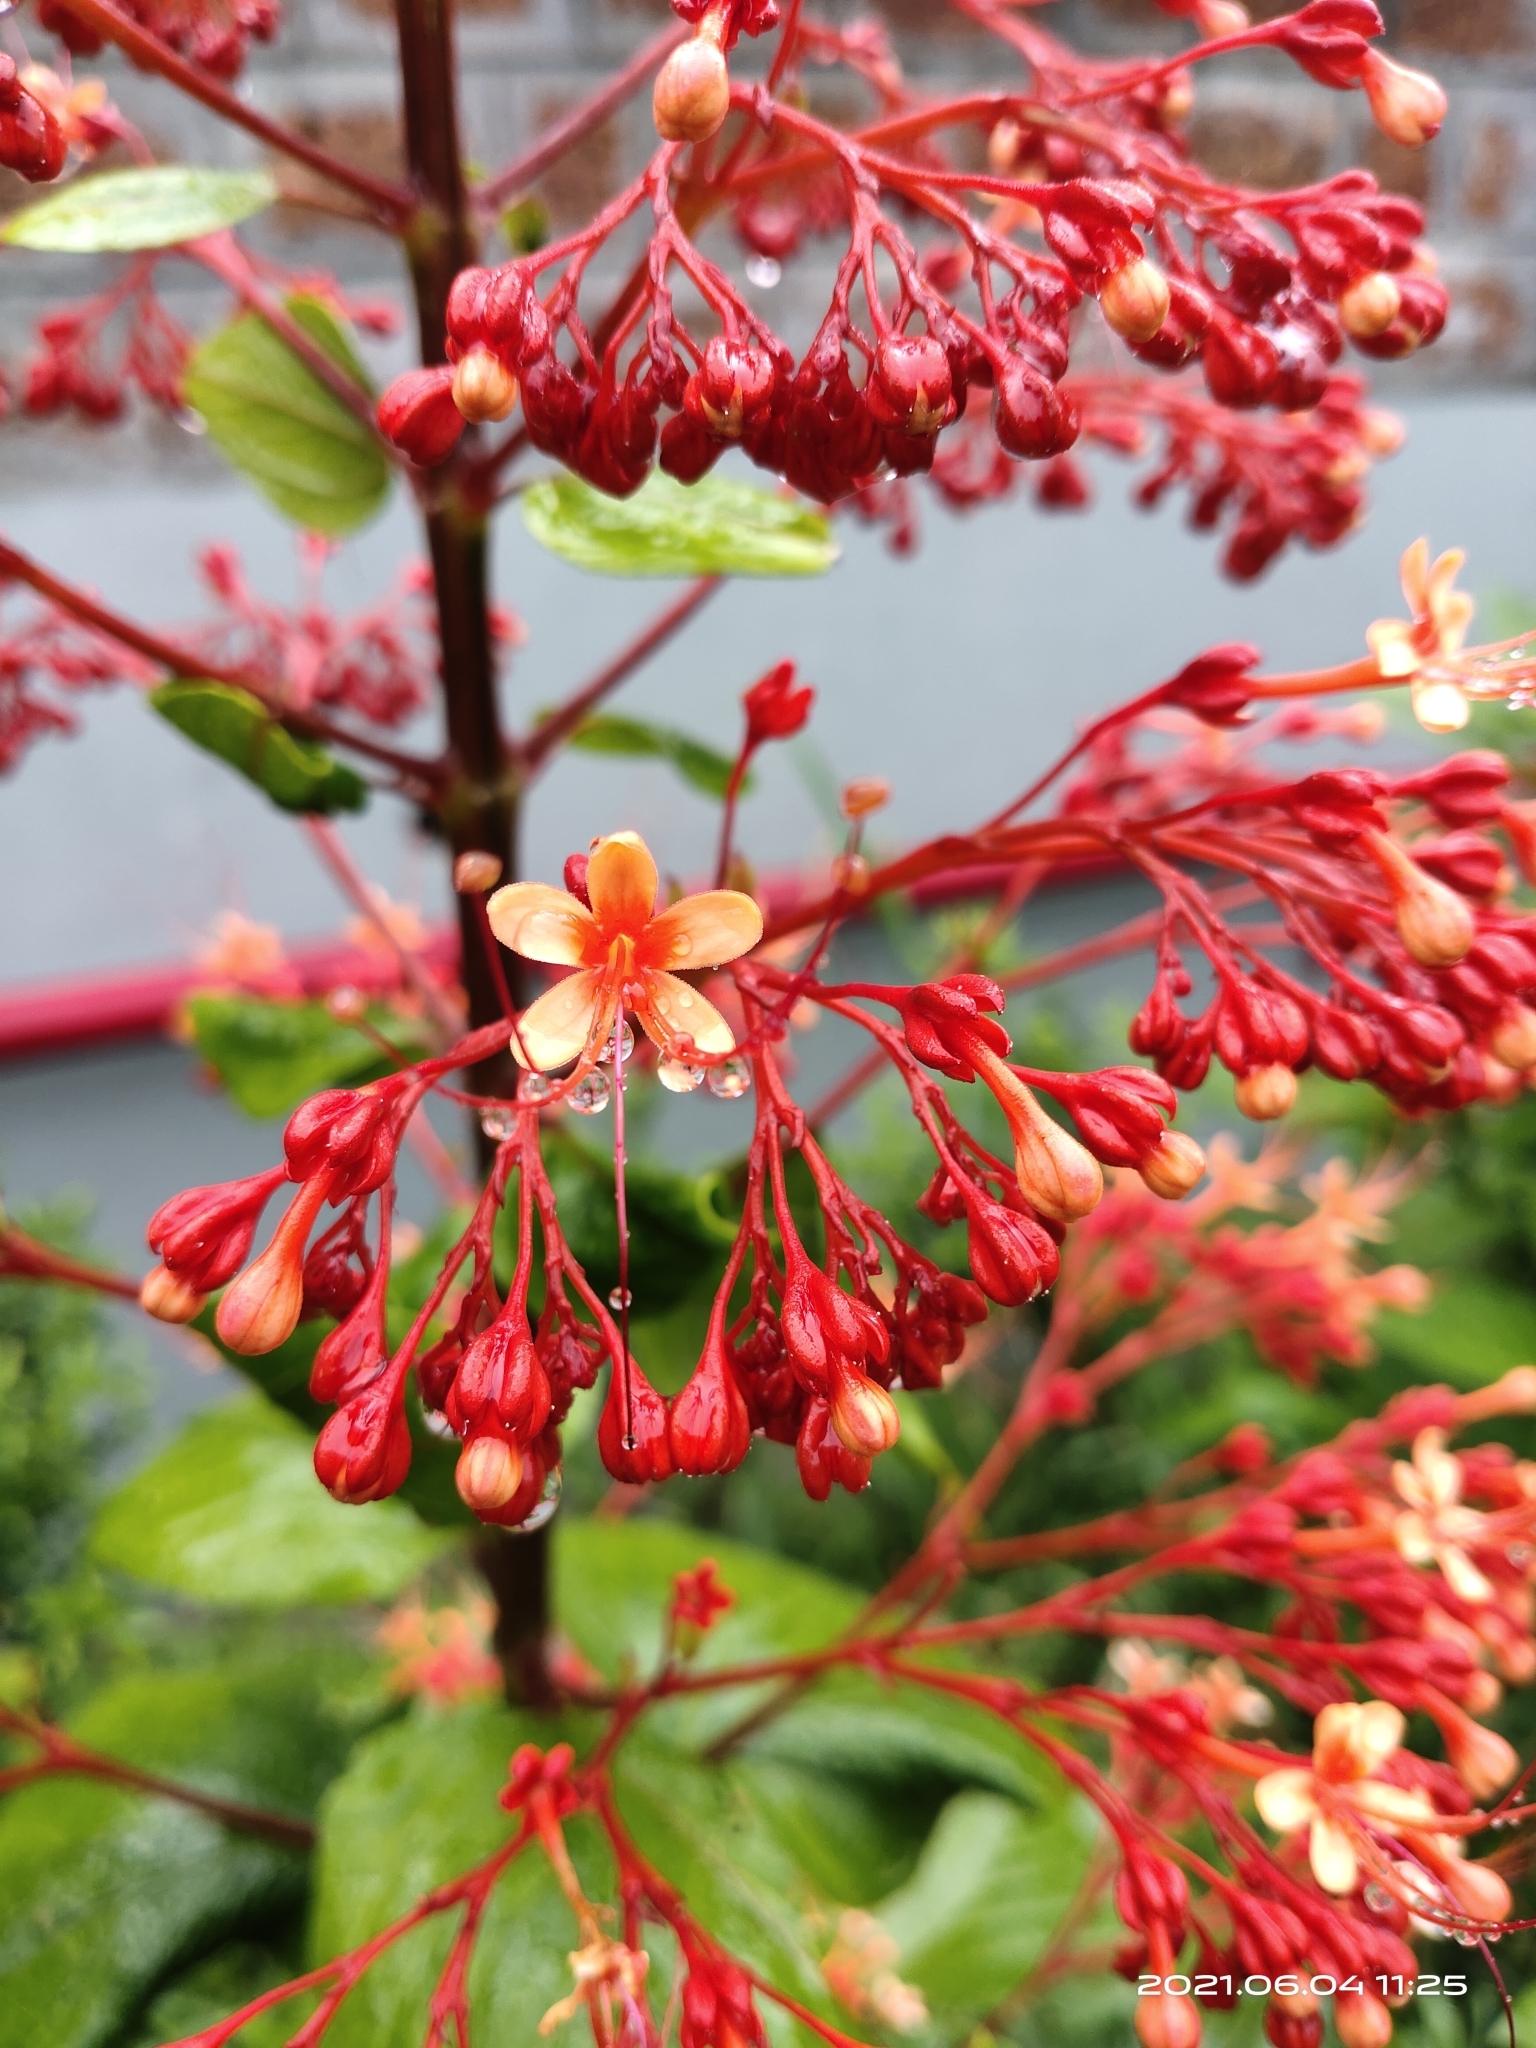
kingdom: Plantae
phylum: Tracheophyta
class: Magnoliopsida
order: Lamiales
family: Lamiaceae
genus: Clerodendrum
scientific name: Clerodendrum paniculatum
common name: Pagoda-flower
